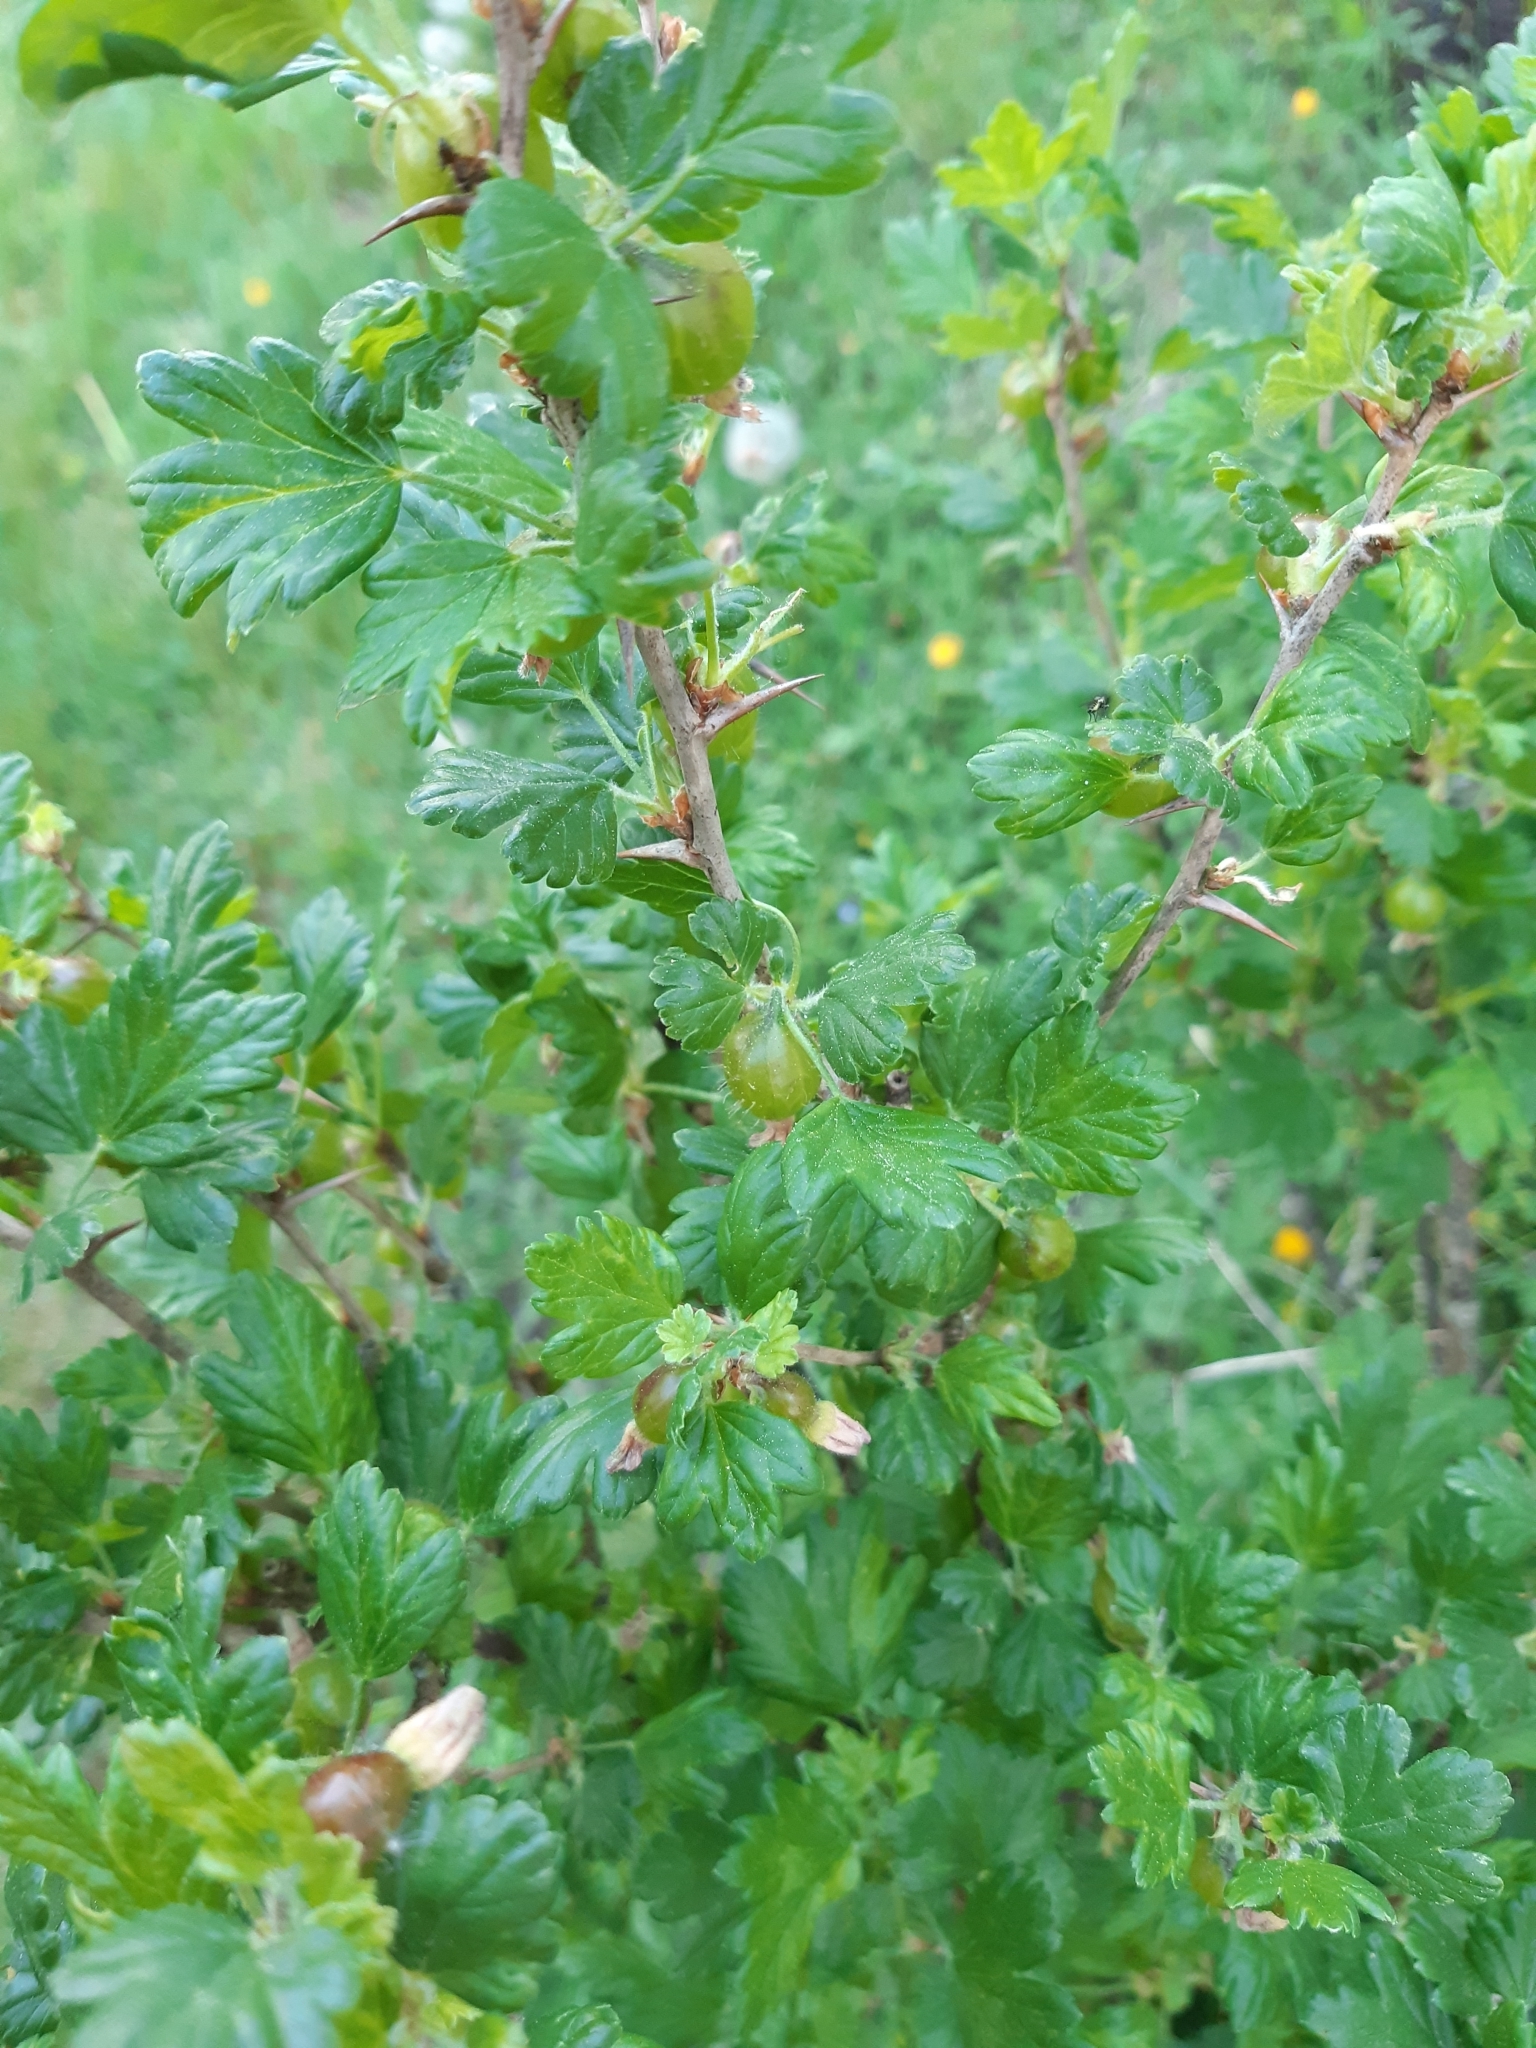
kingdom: Plantae
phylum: Tracheophyta
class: Magnoliopsida
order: Saxifragales
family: Grossulariaceae
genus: Ribes
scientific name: Ribes uva-crispa
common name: Gooseberry
